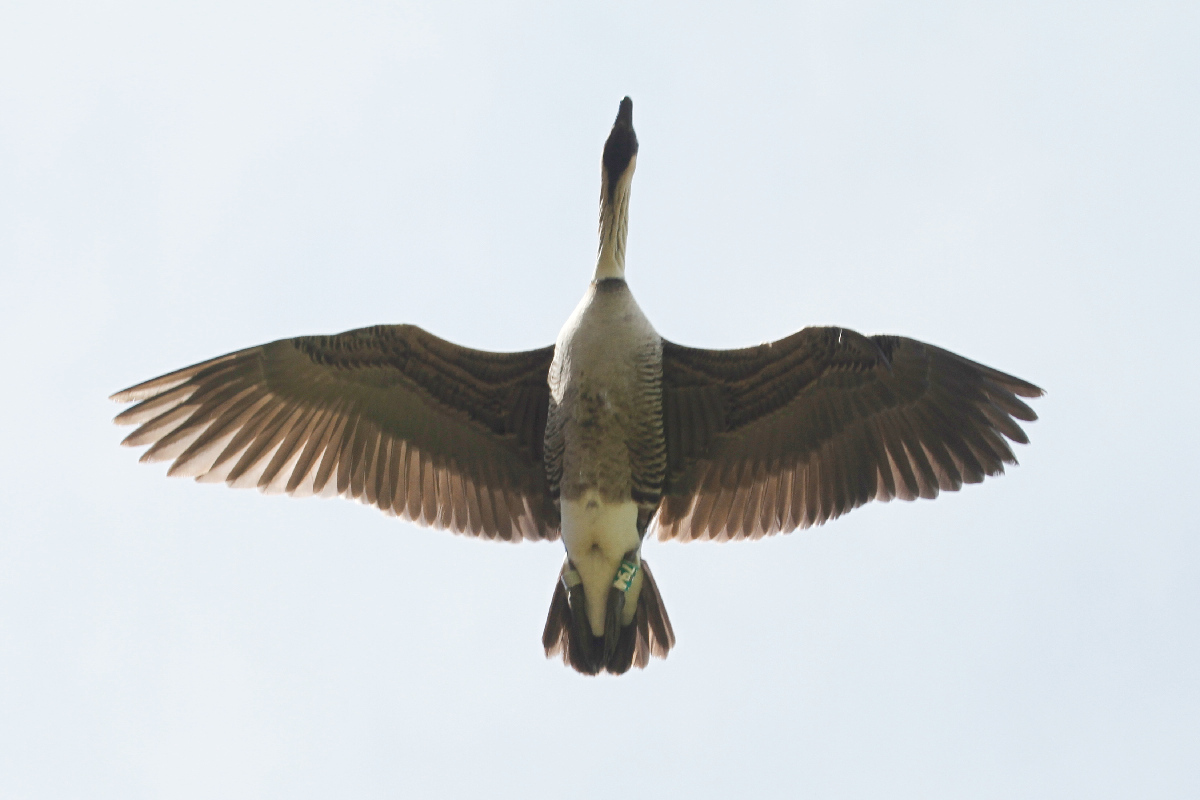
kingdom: Animalia
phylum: Chordata
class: Aves
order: Anseriformes
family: Anatidae
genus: Branta
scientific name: Branta sandvicensis
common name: Nene
